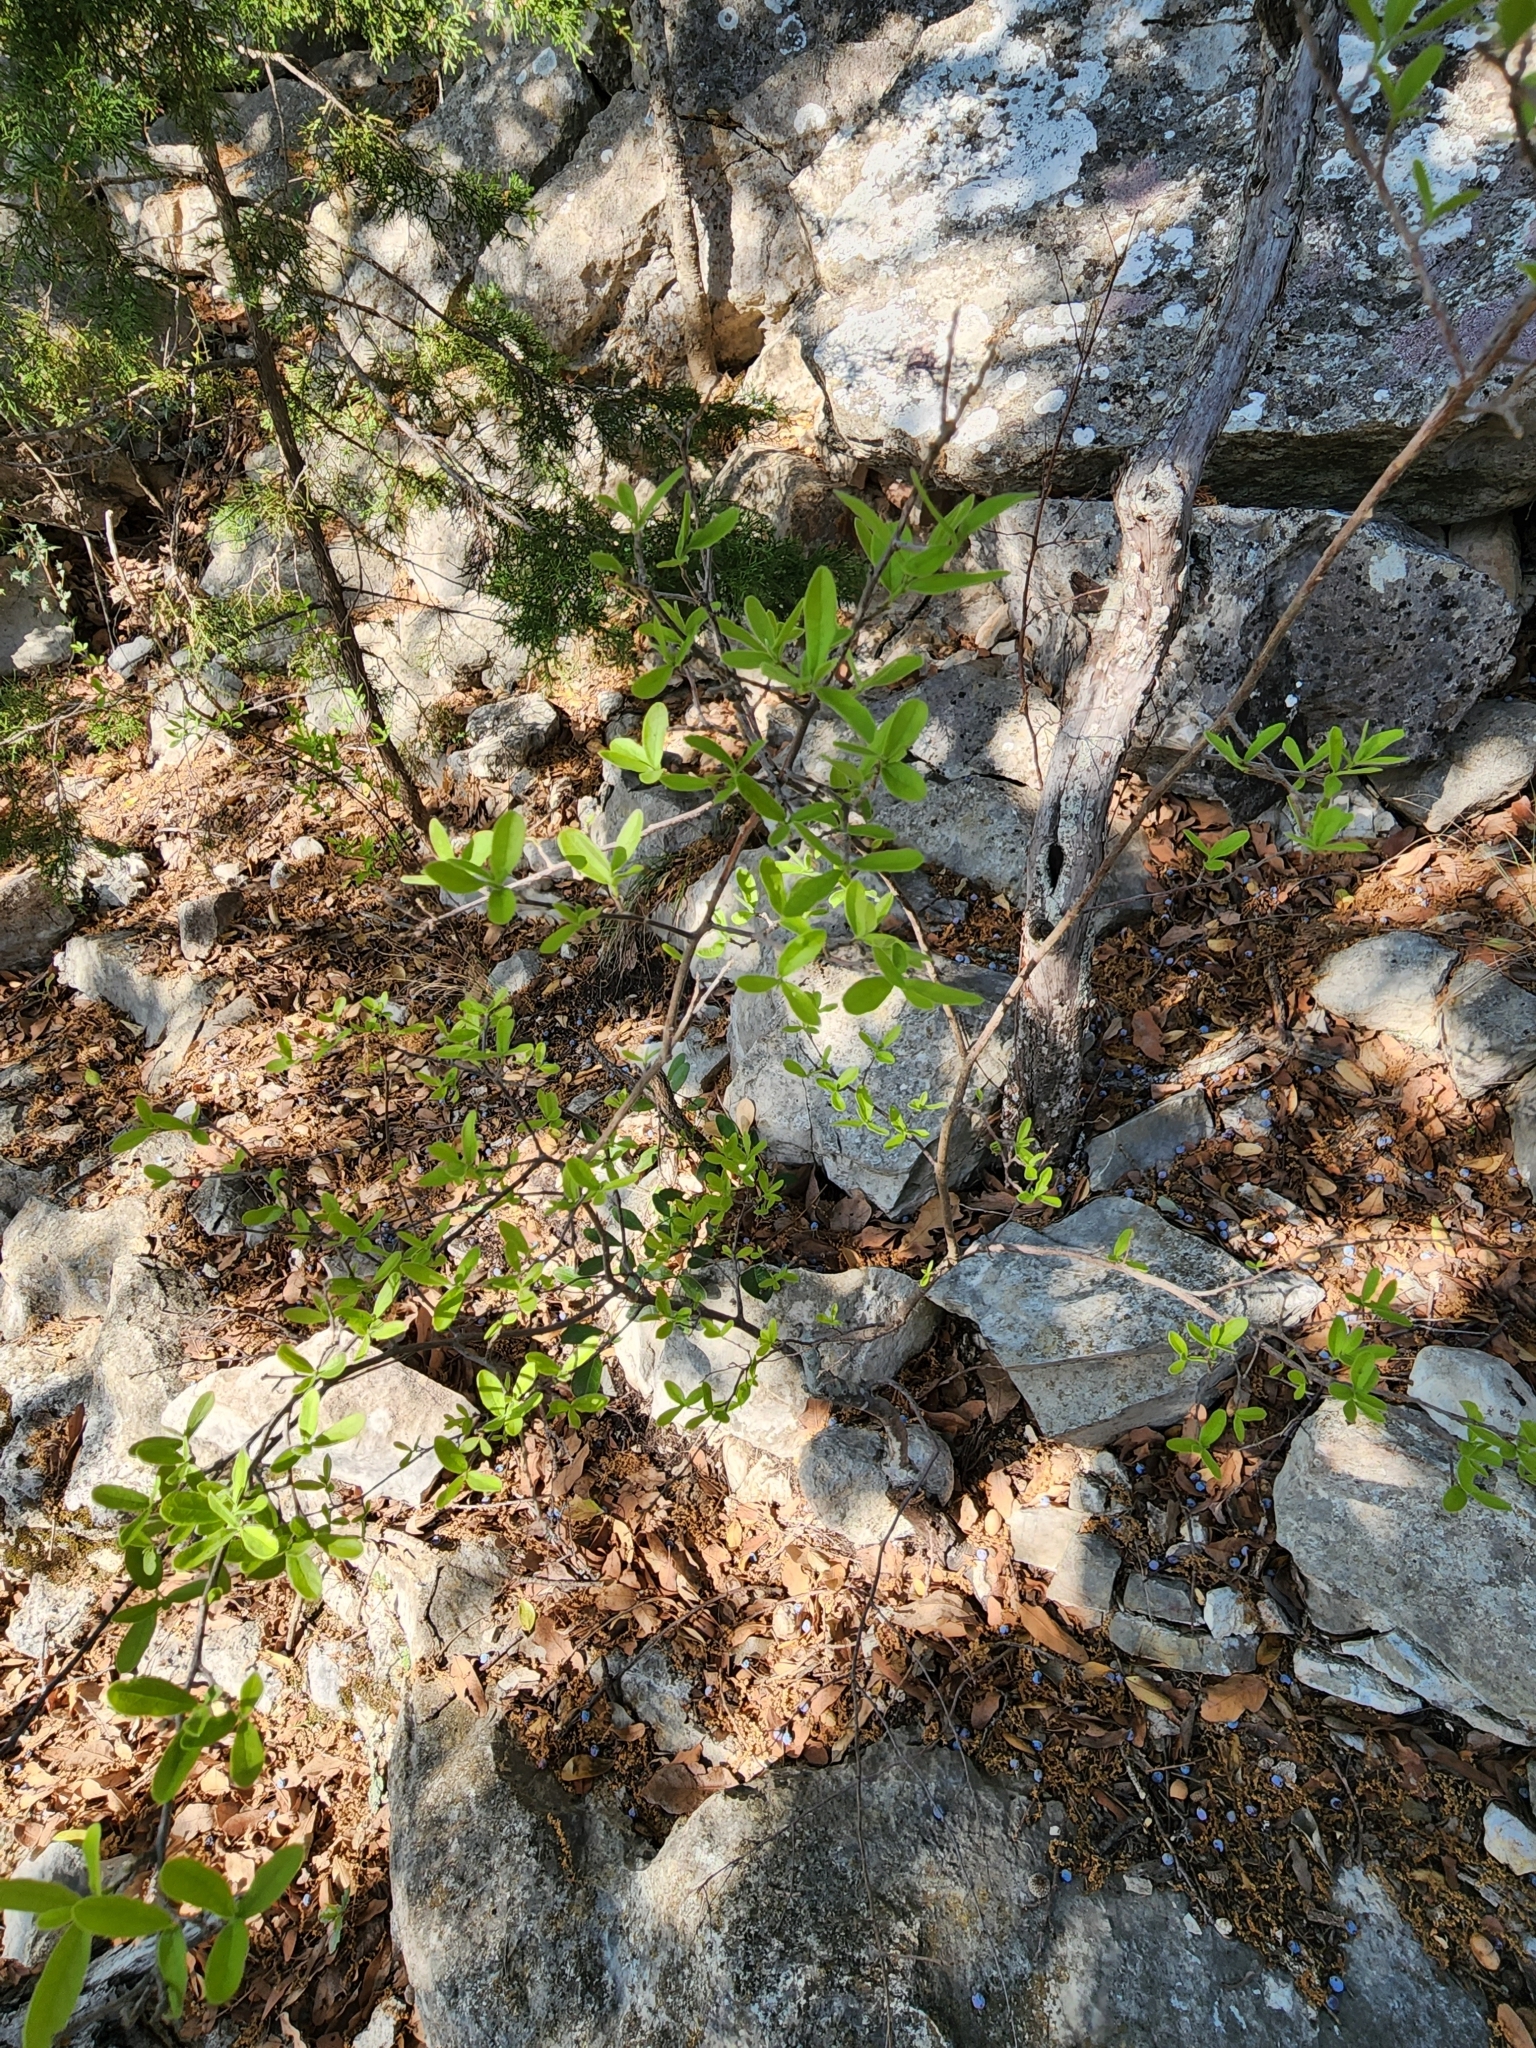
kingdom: Plantae
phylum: Tracheophyta
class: Magnoliopsida
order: Ericales
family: Ebenaceae
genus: Diospyros
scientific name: Diospyros texana
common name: Texas persimmon
